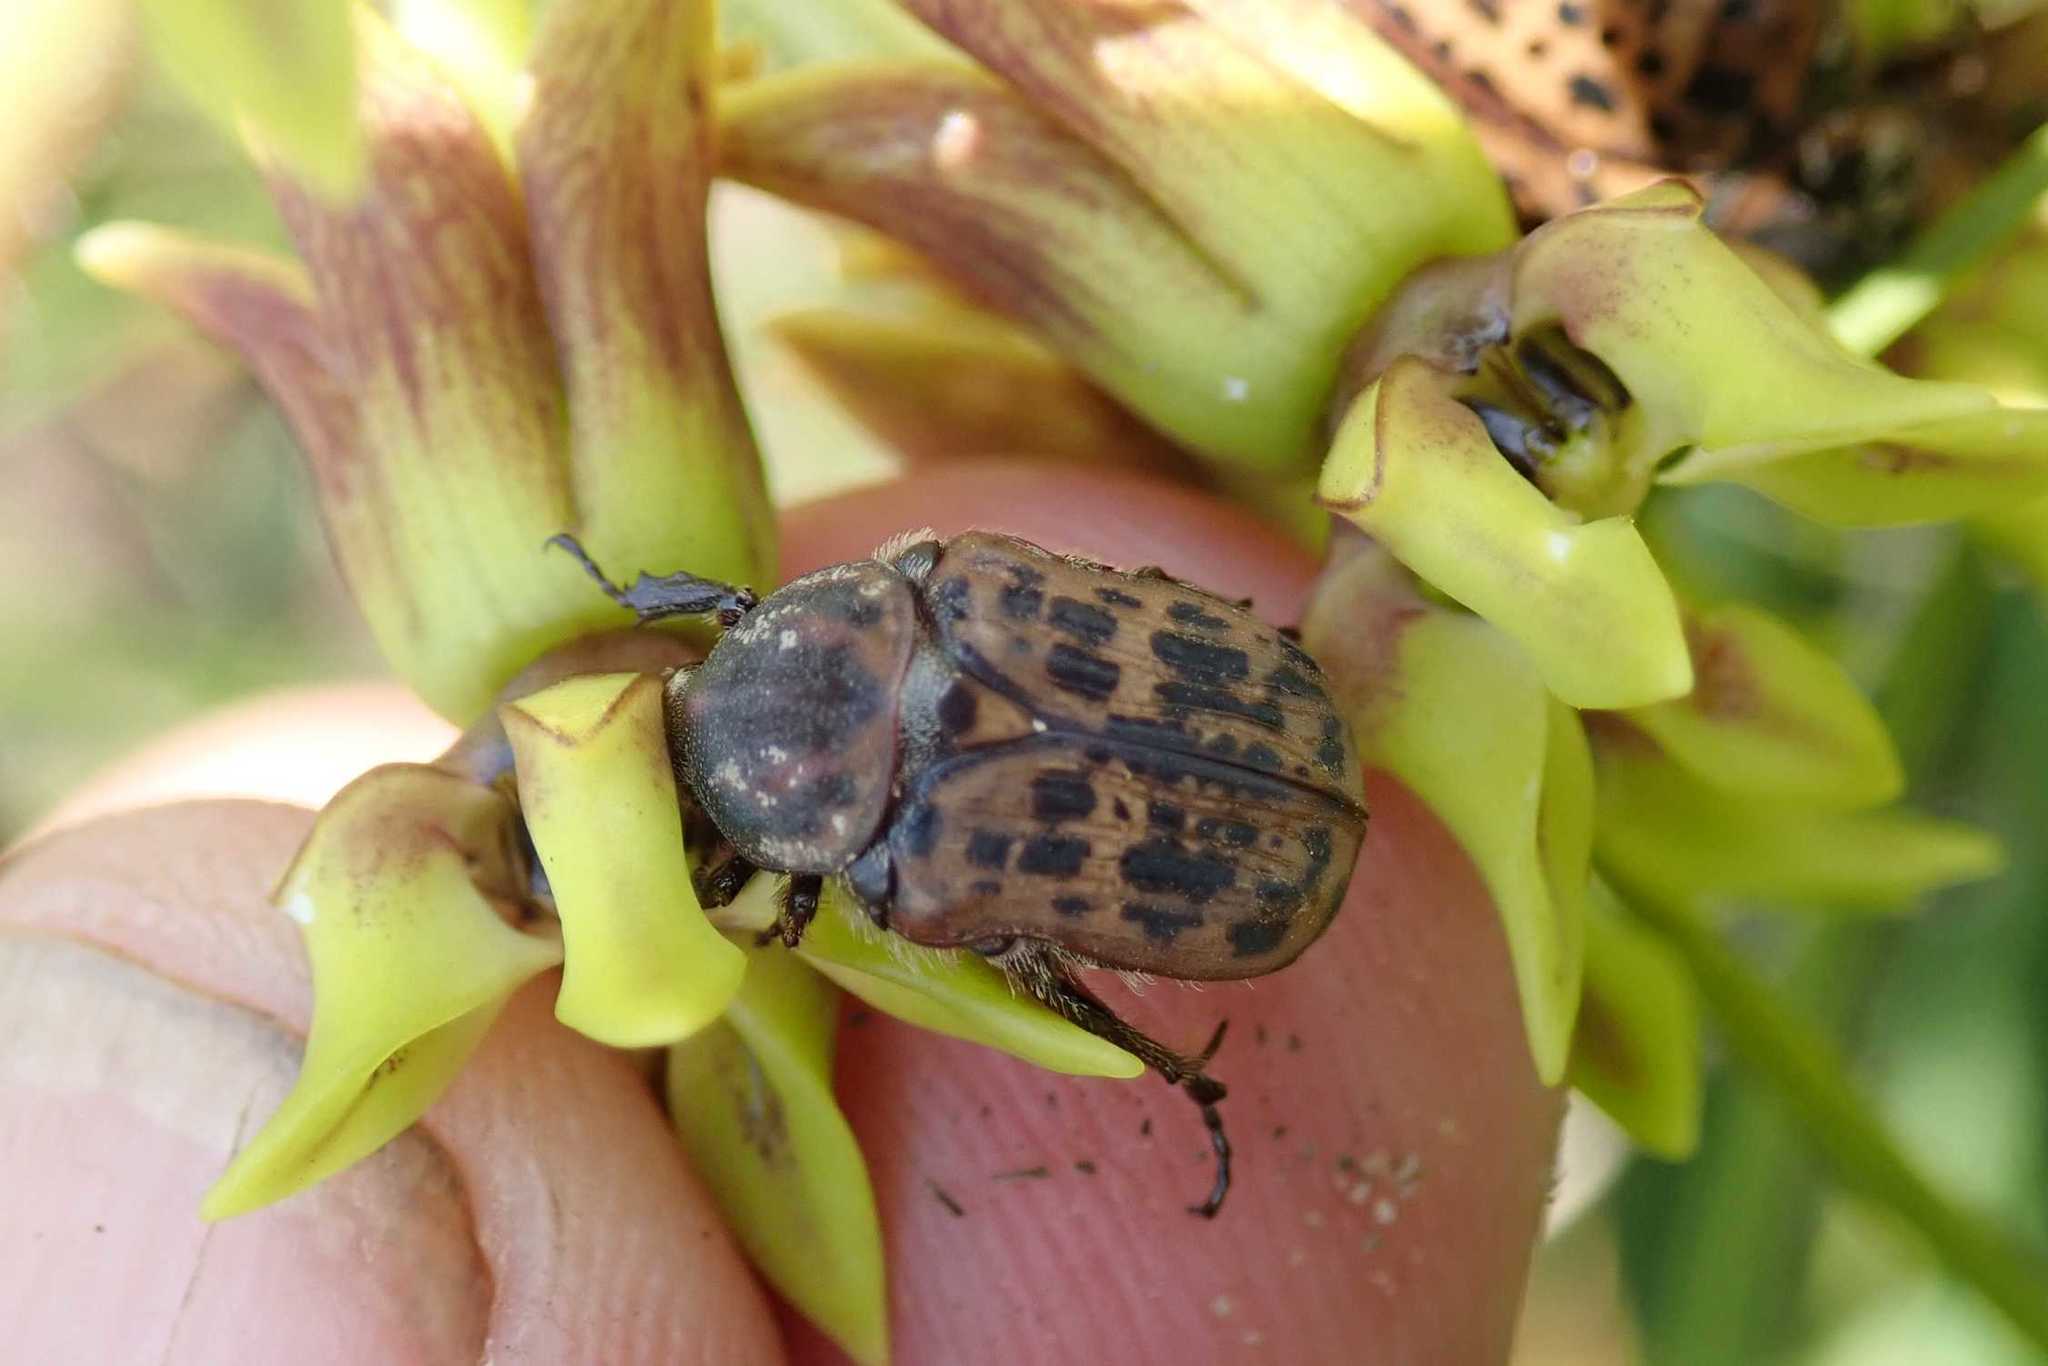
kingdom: Animalia
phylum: Arthropoda
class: Insecta
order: Coleoptera
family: Scarabaeidae
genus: Atrichelaphinis
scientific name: Atrichelaphinis tigrina
